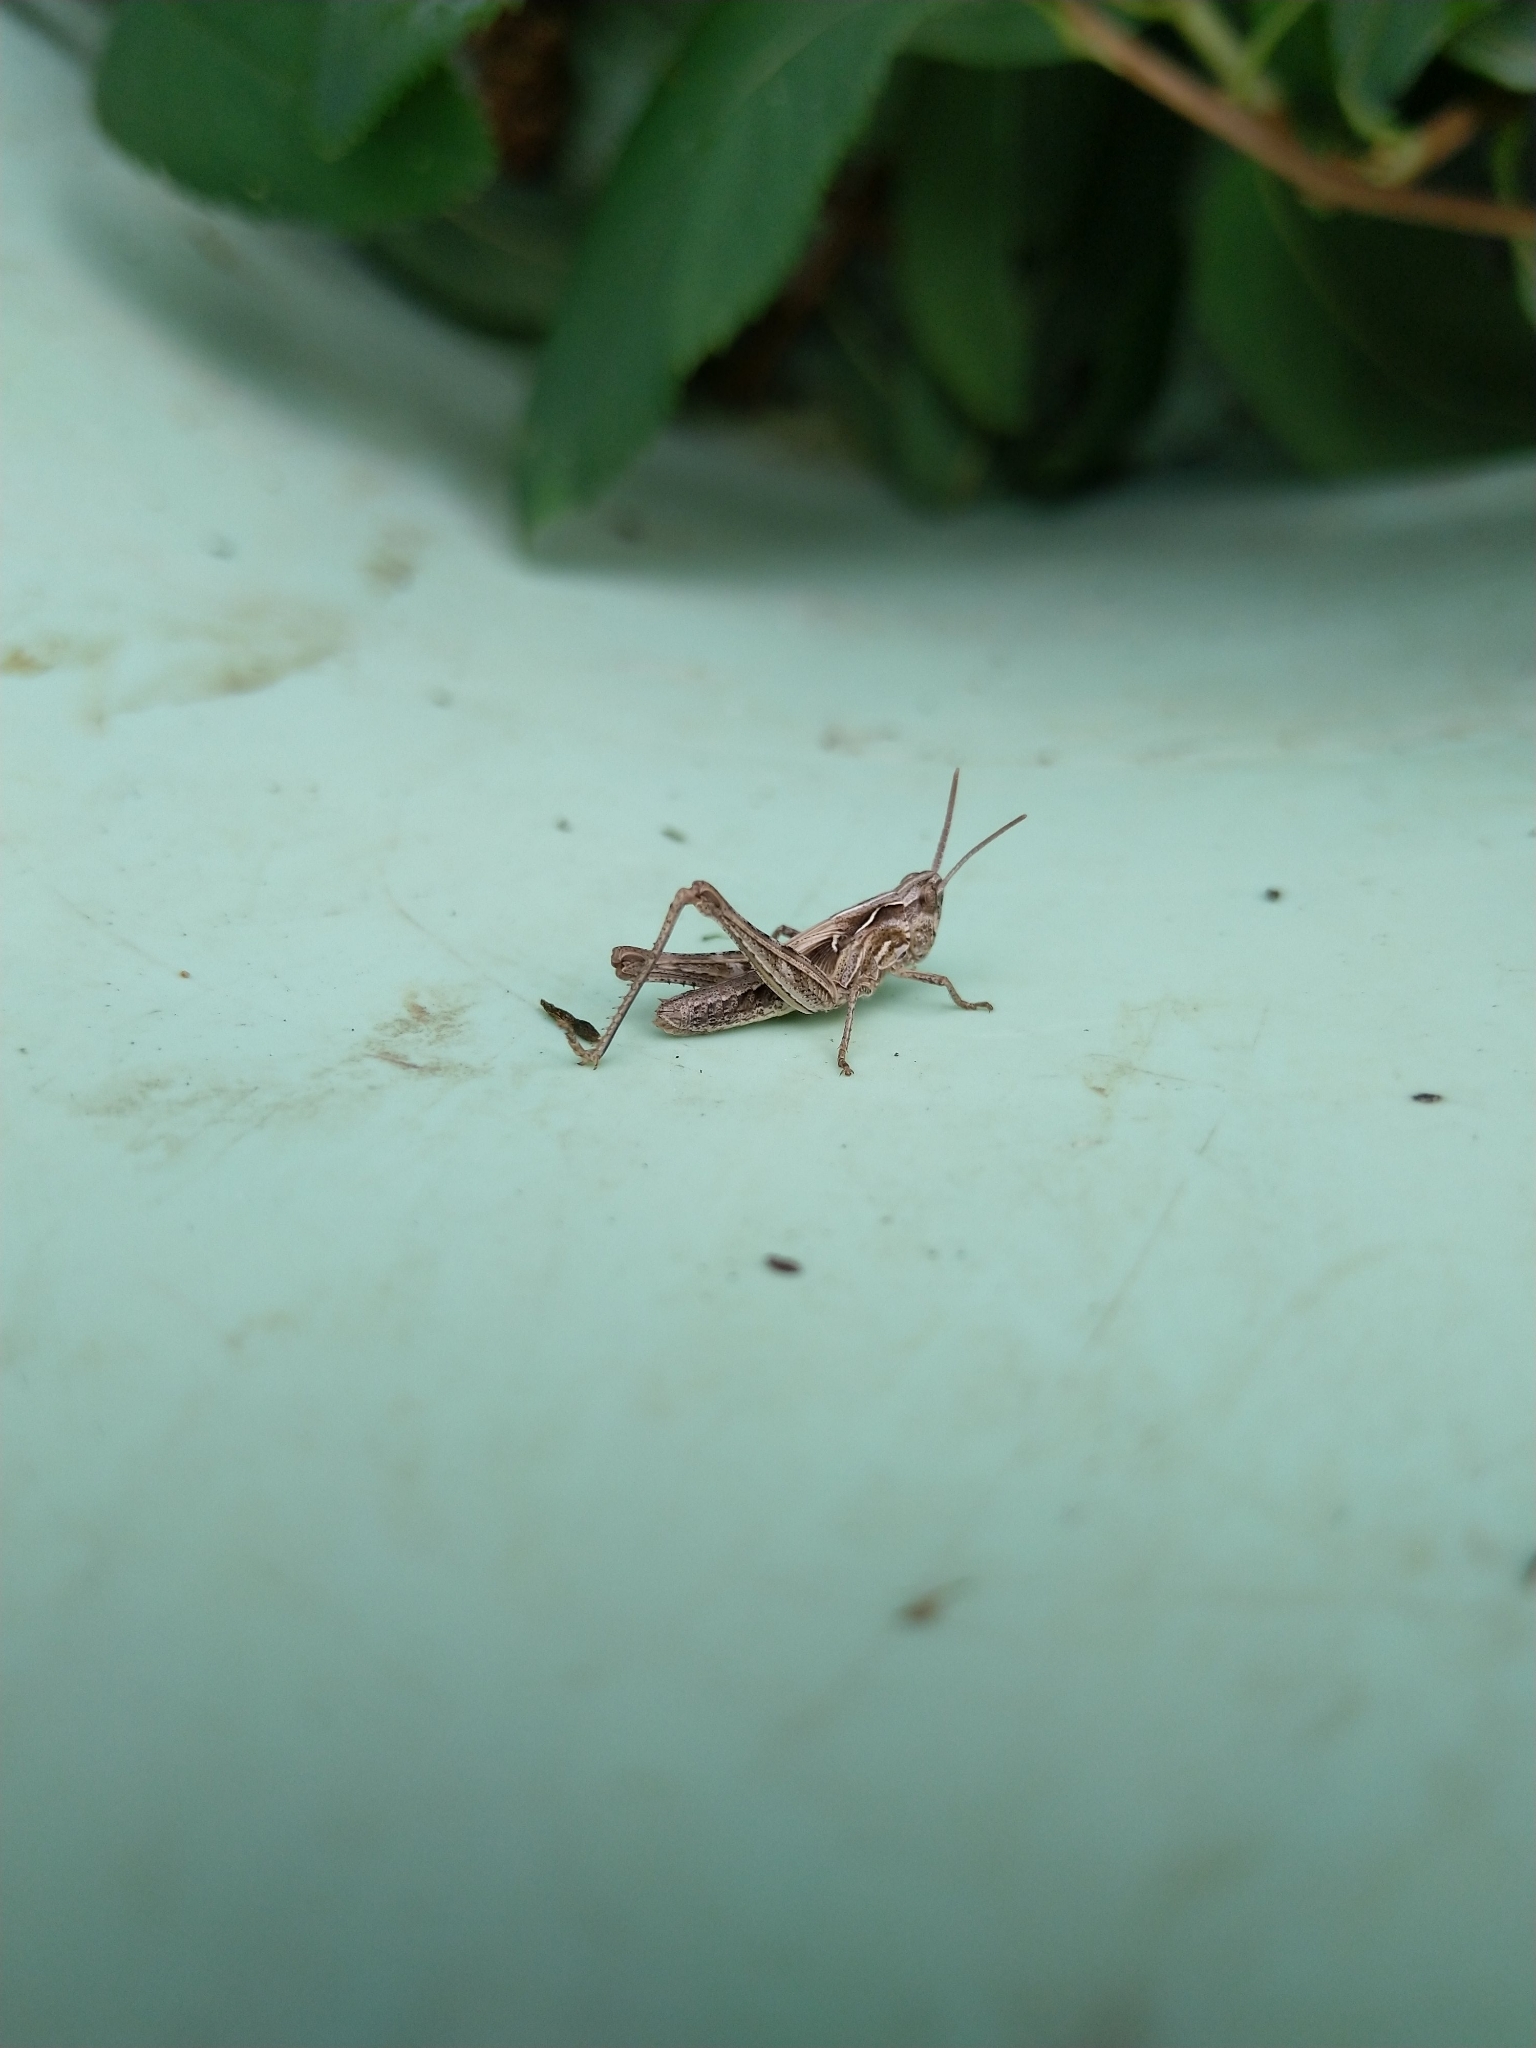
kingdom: Animalia
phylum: Arthropoda
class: Insecta
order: Orthoptera
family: Acrididae
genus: Chorthippus
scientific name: Chorthippus brunneus
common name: Field grasshopper
